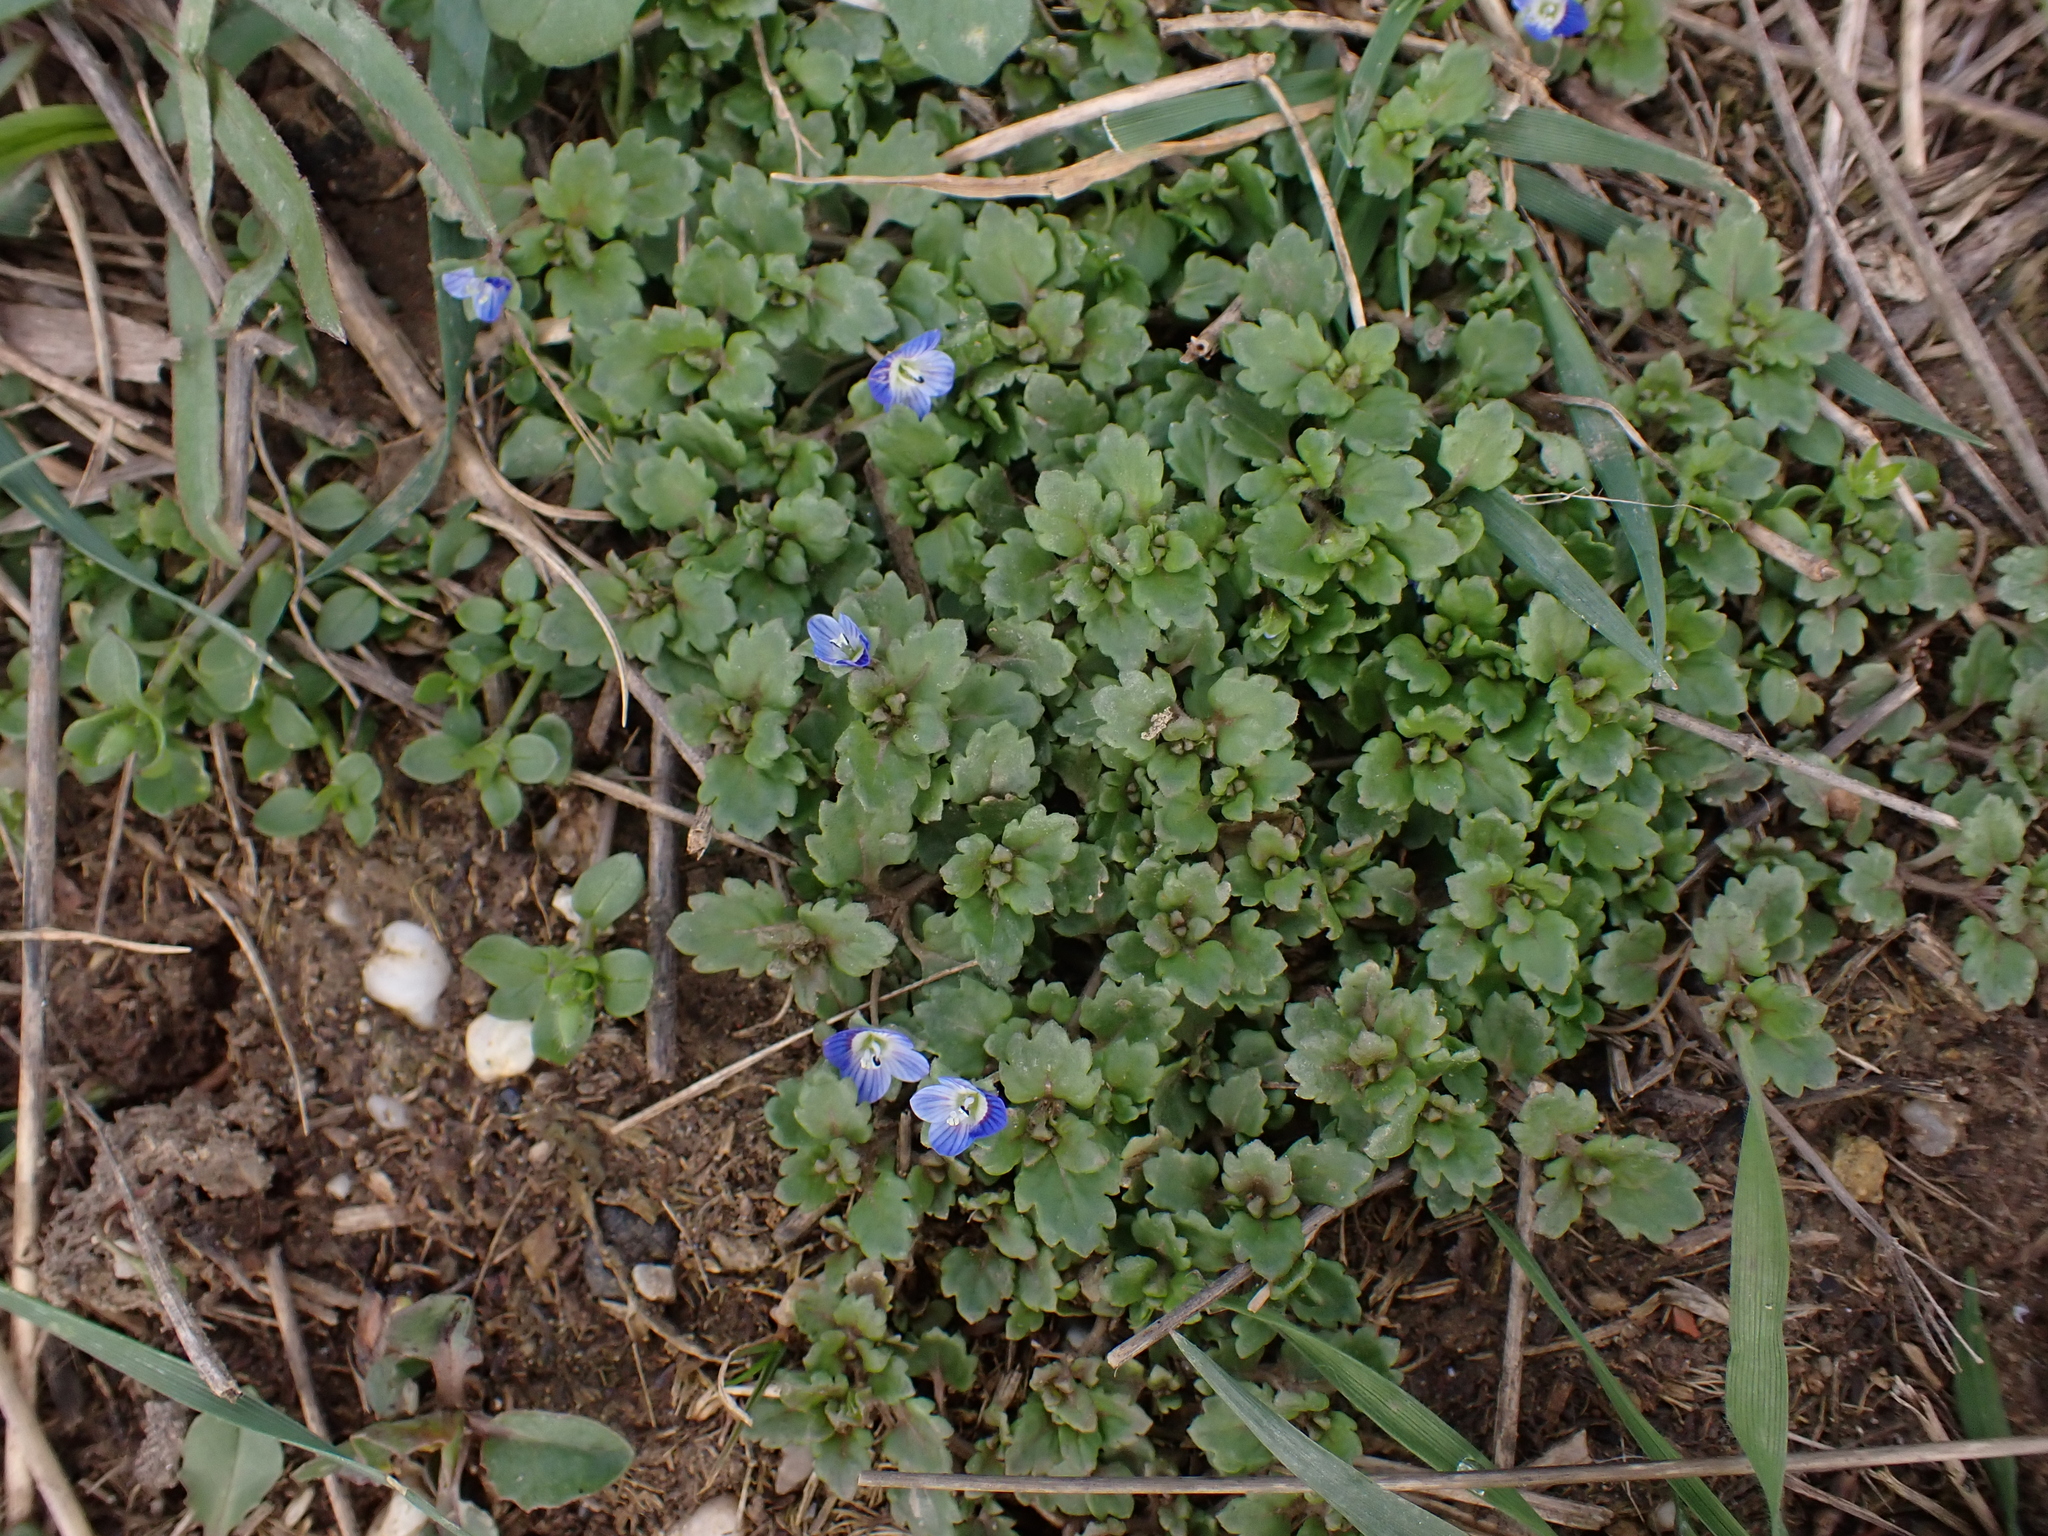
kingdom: Plantae
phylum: Tracheophyta
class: Magnoliopsida
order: Lamiales
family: Plantaginaceae
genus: Veronica
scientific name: Veronica polita
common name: Grey field-speedwell
